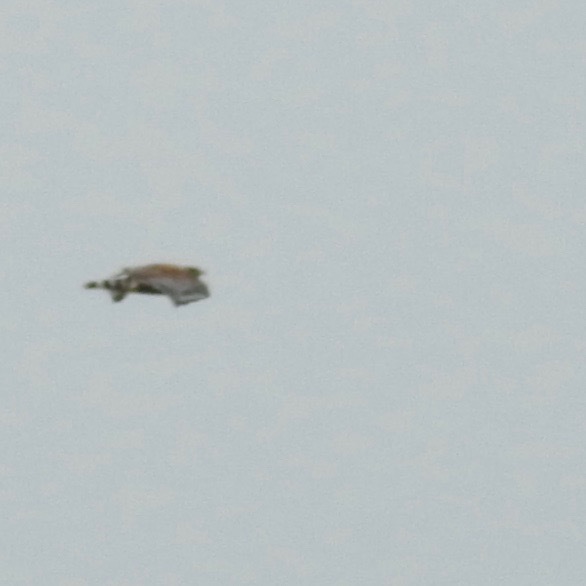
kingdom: Animalia
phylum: Chordata
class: Aves
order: Accipitriformes
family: Accipitridae
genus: Buteo
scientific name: Buteo lineatus
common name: Red-shouldered hawk
